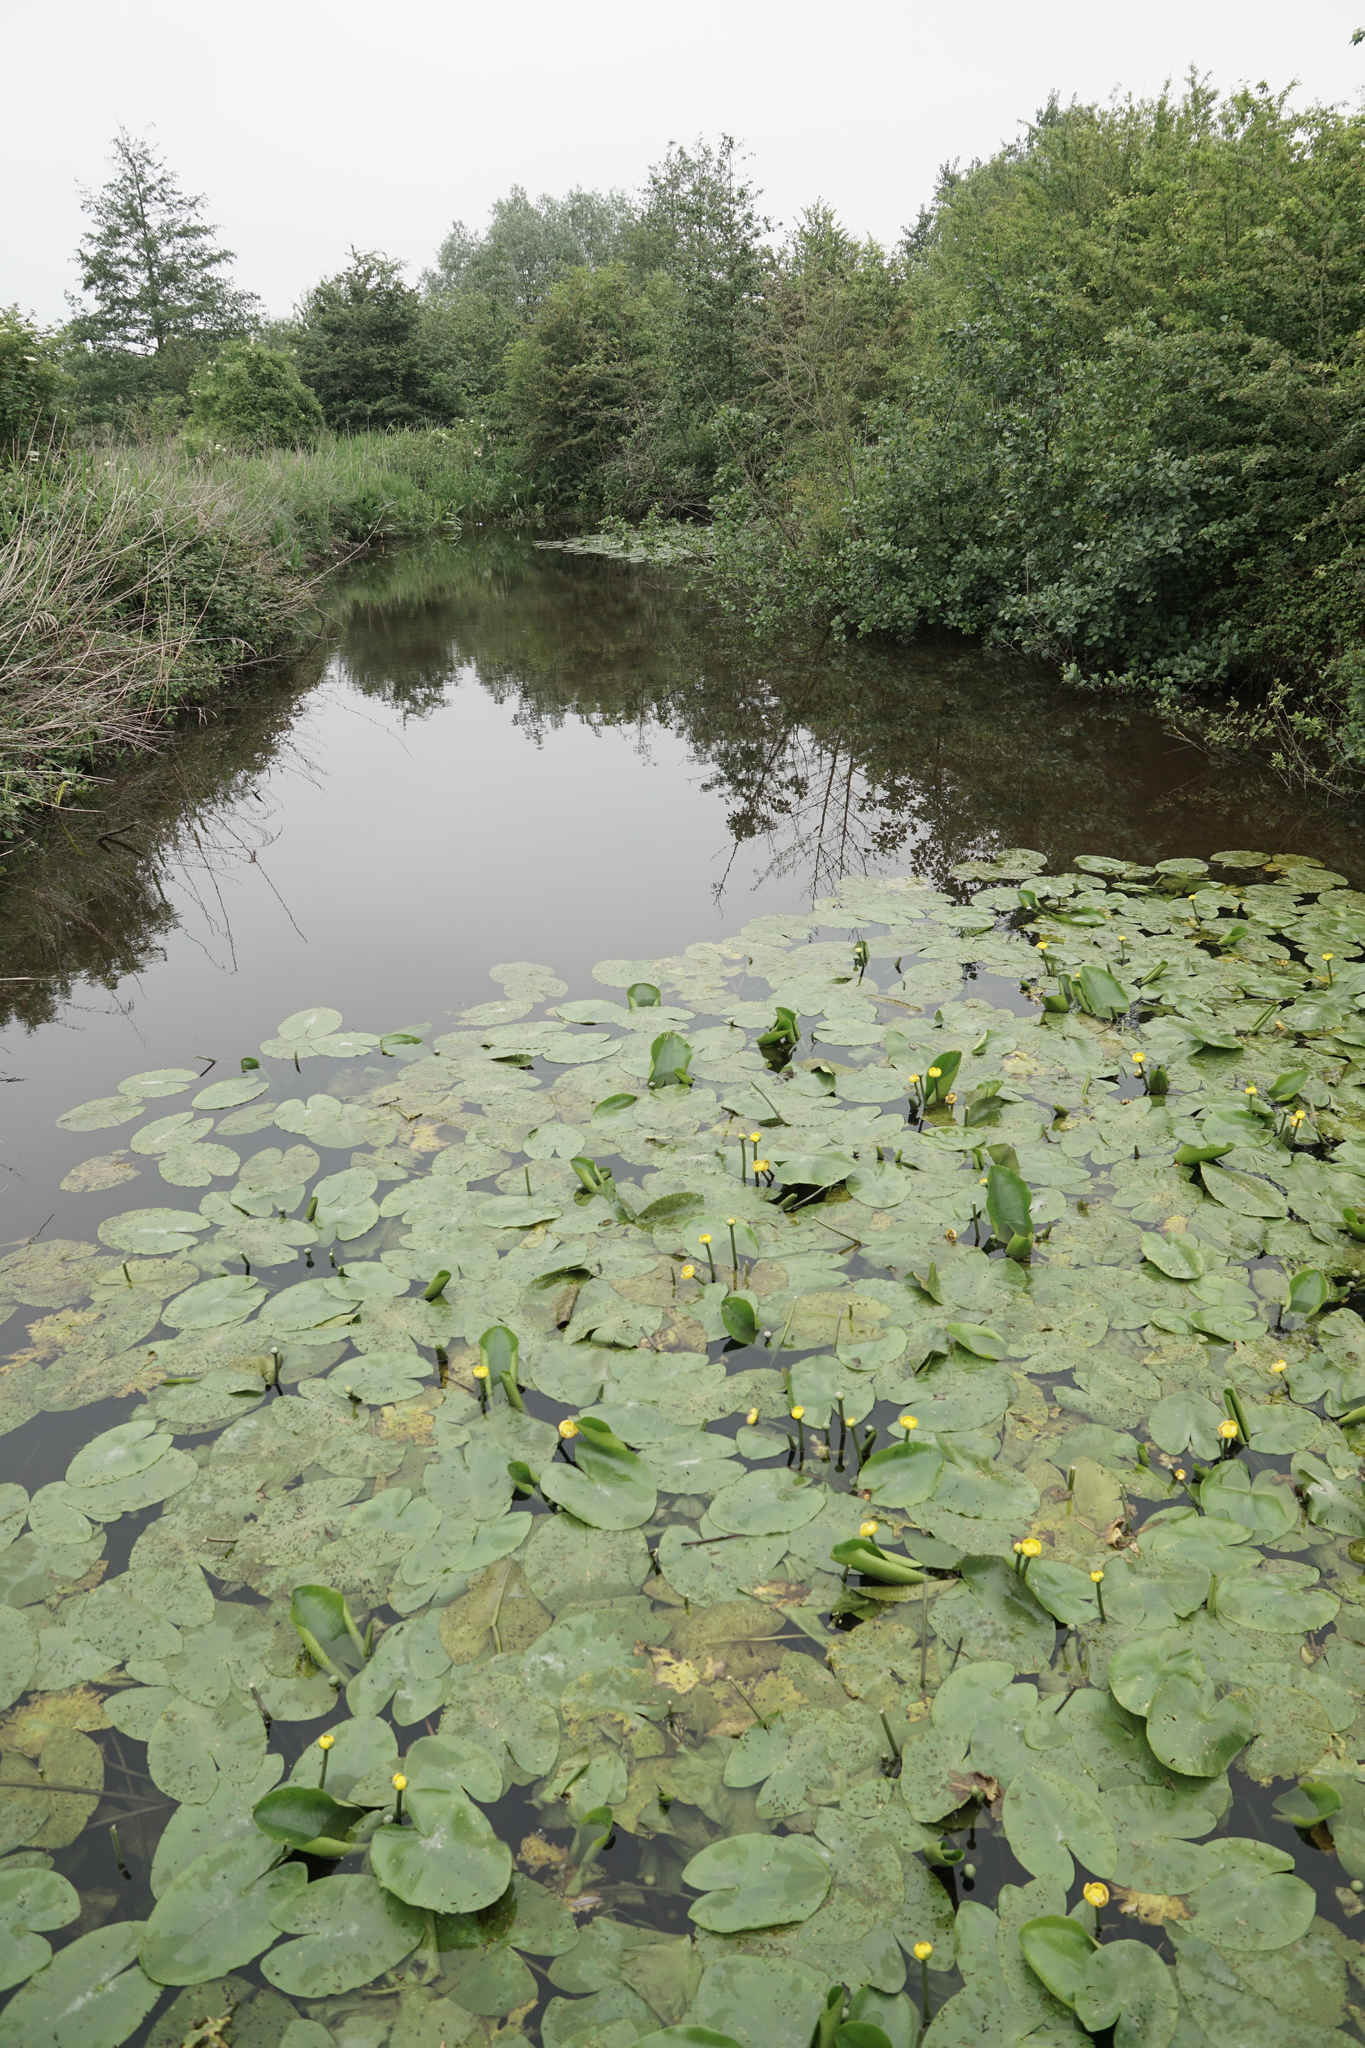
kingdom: Plantae
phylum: Tracheophyta
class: Magnoliopsida
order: Nymphaeales
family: Nymphaeaceae
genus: Nuphar
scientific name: Nuphar lutea
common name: Yellow water-lily
